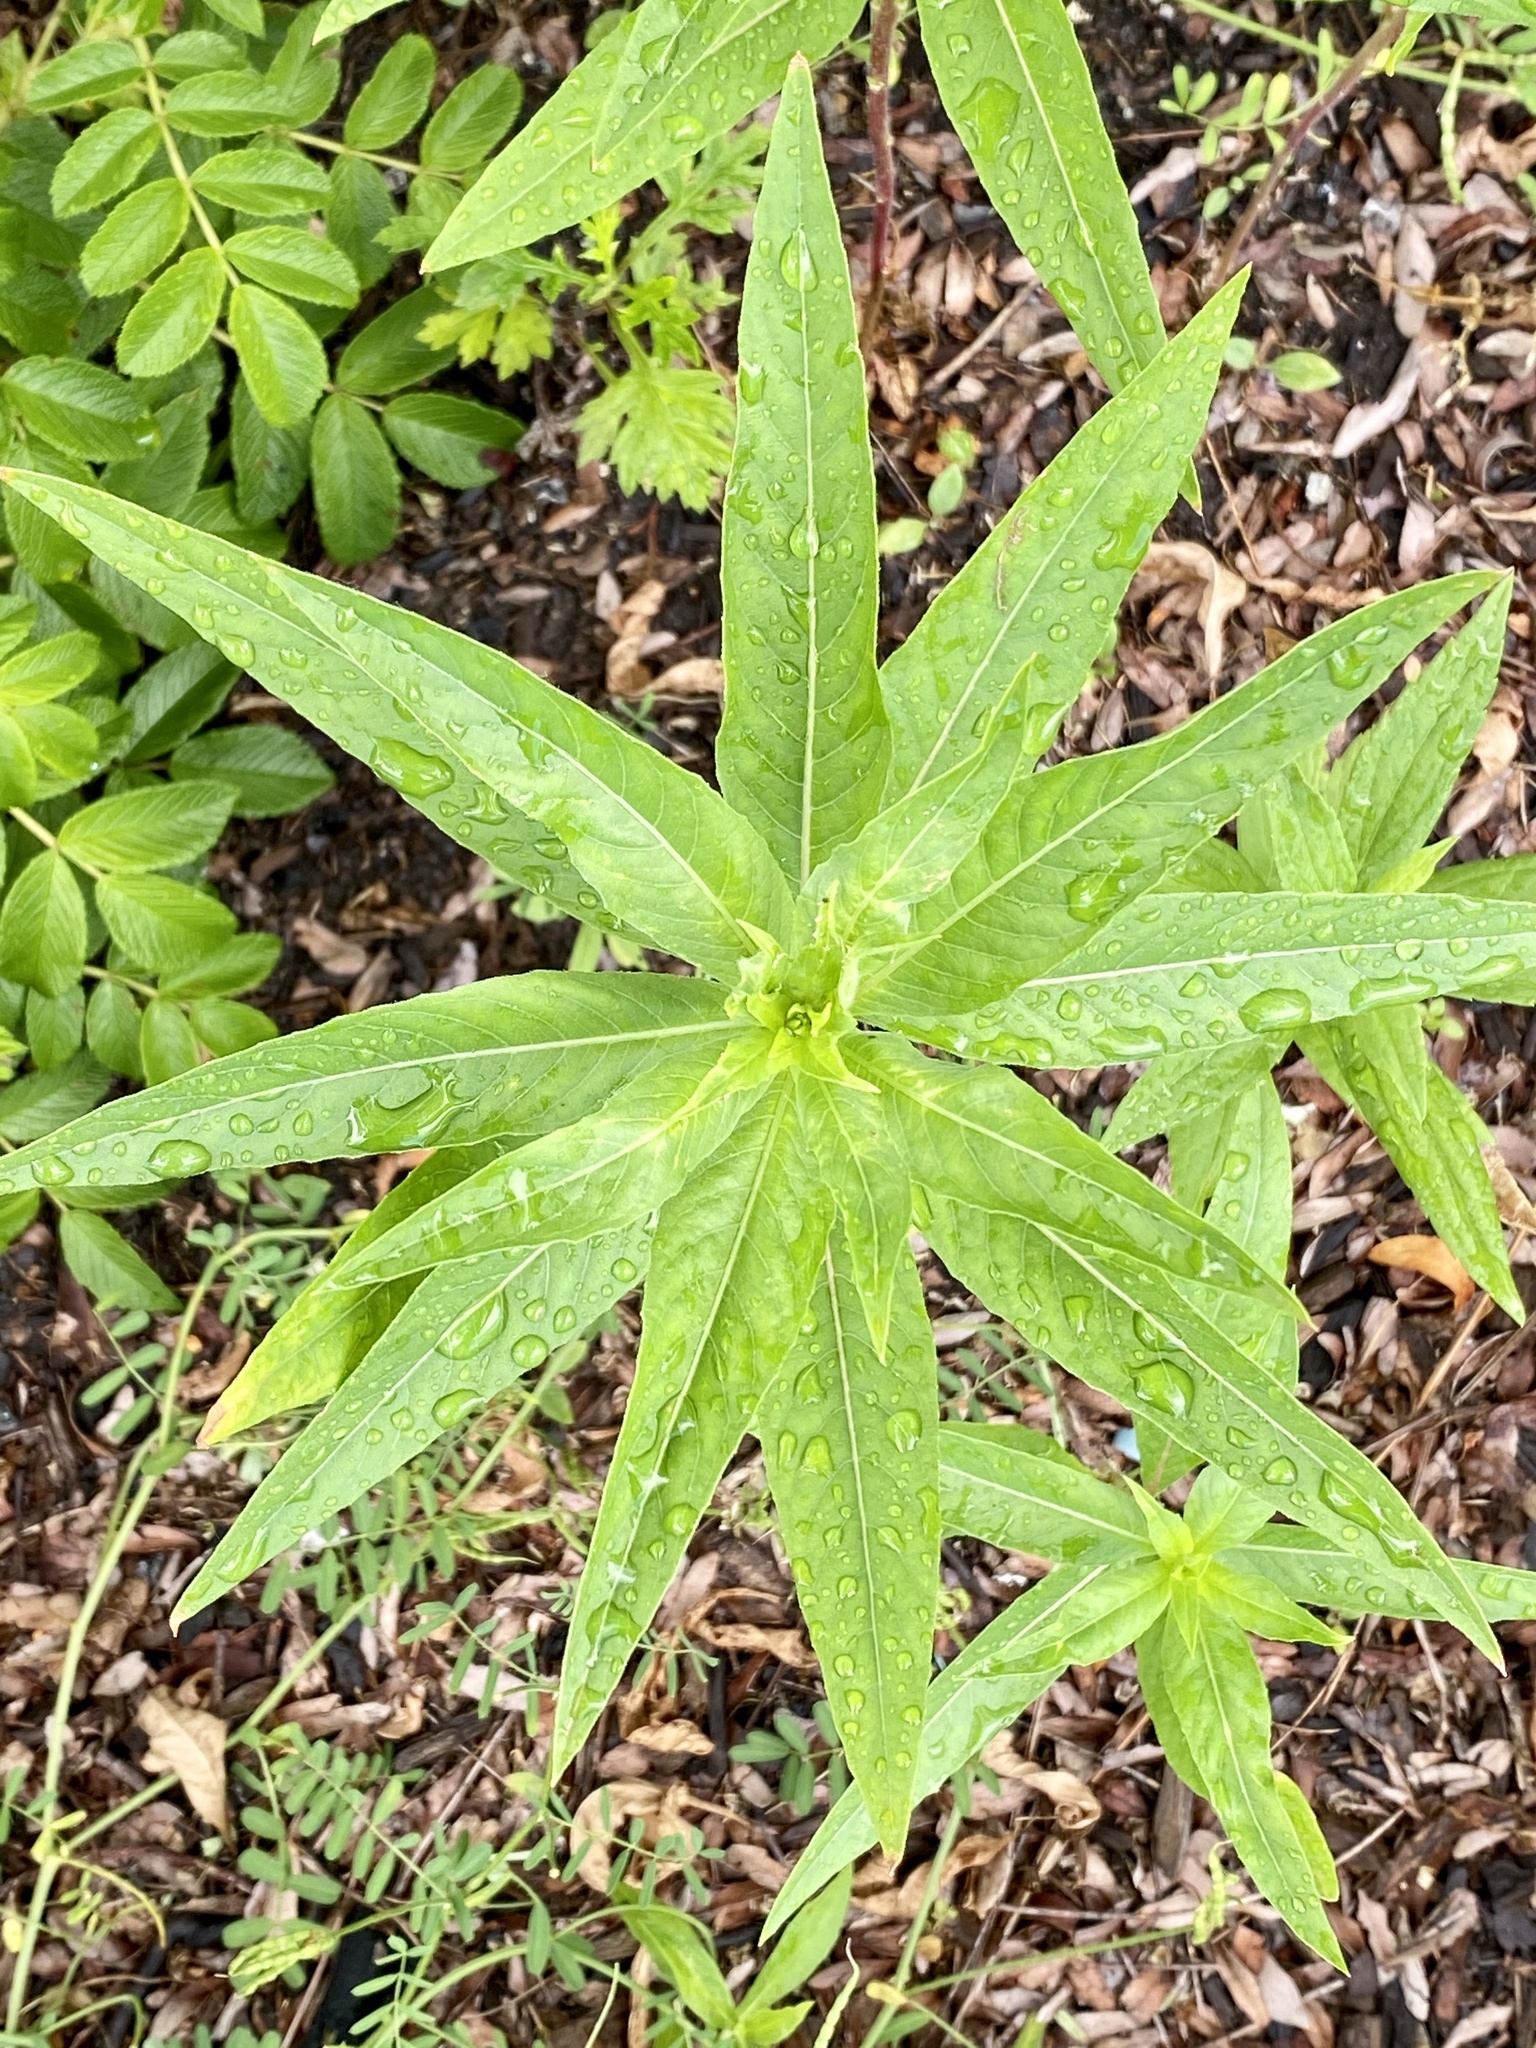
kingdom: Plantae
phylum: Tracheophyta
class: Magnoliopsida
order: Myrtales
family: Onagraceae
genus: Oenothera
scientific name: Oenothera biennis
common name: Common evening-primrose
